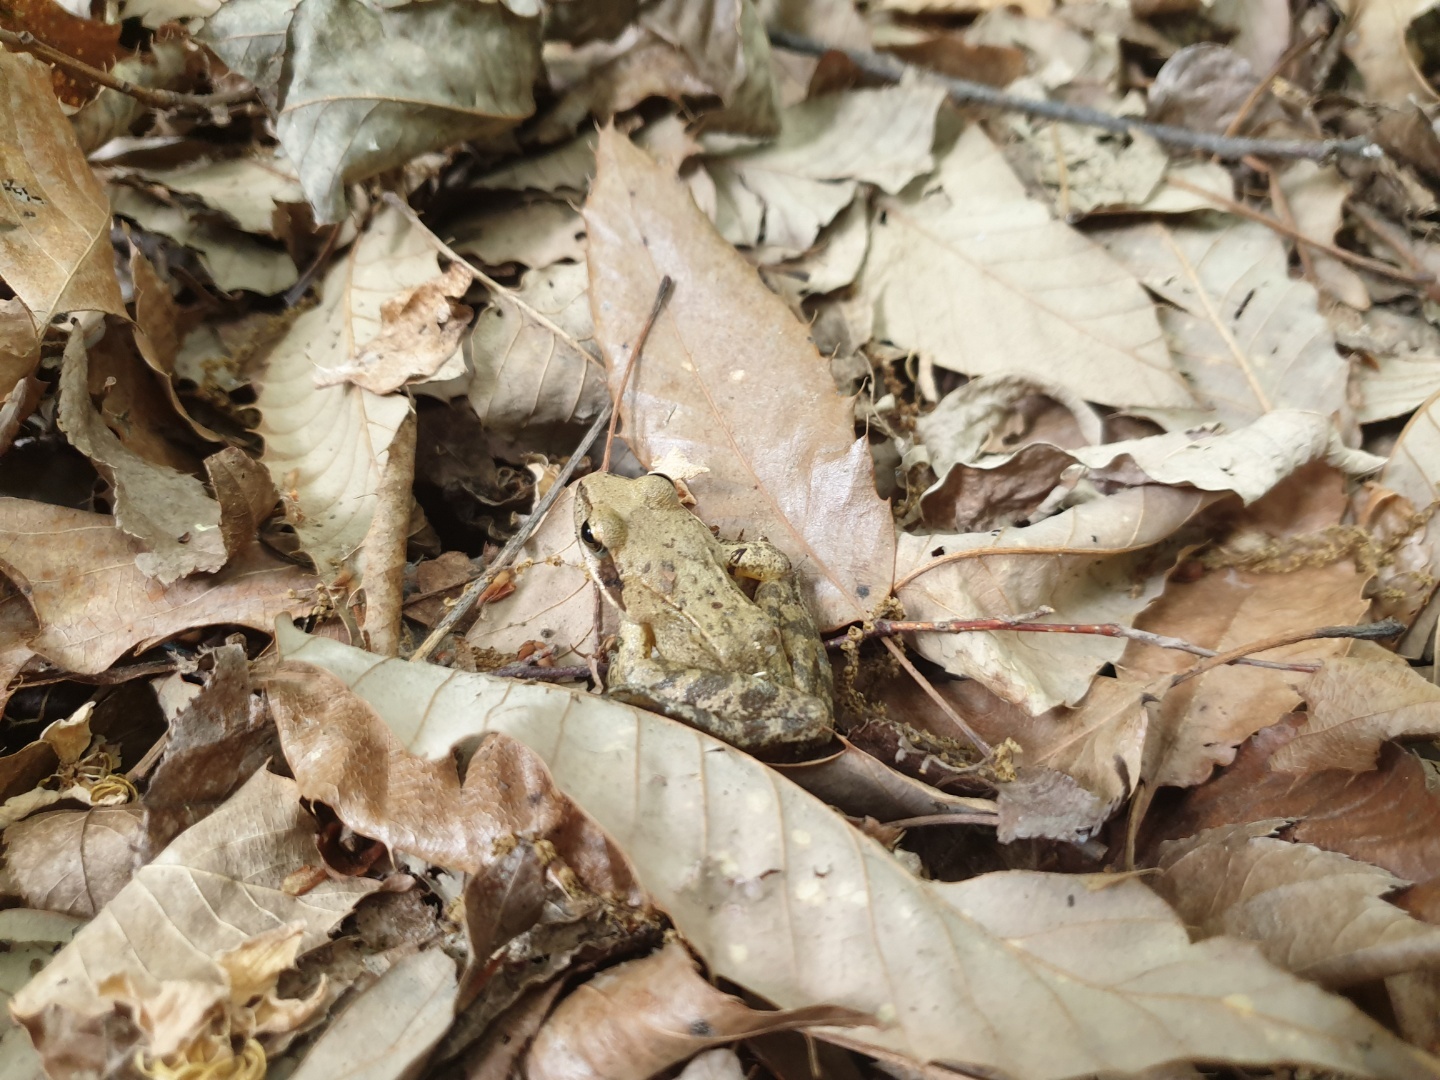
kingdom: Animalia
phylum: Chordata
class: Amphibia
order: Anura
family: Ranidae
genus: Rana
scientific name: Rana uenoi
